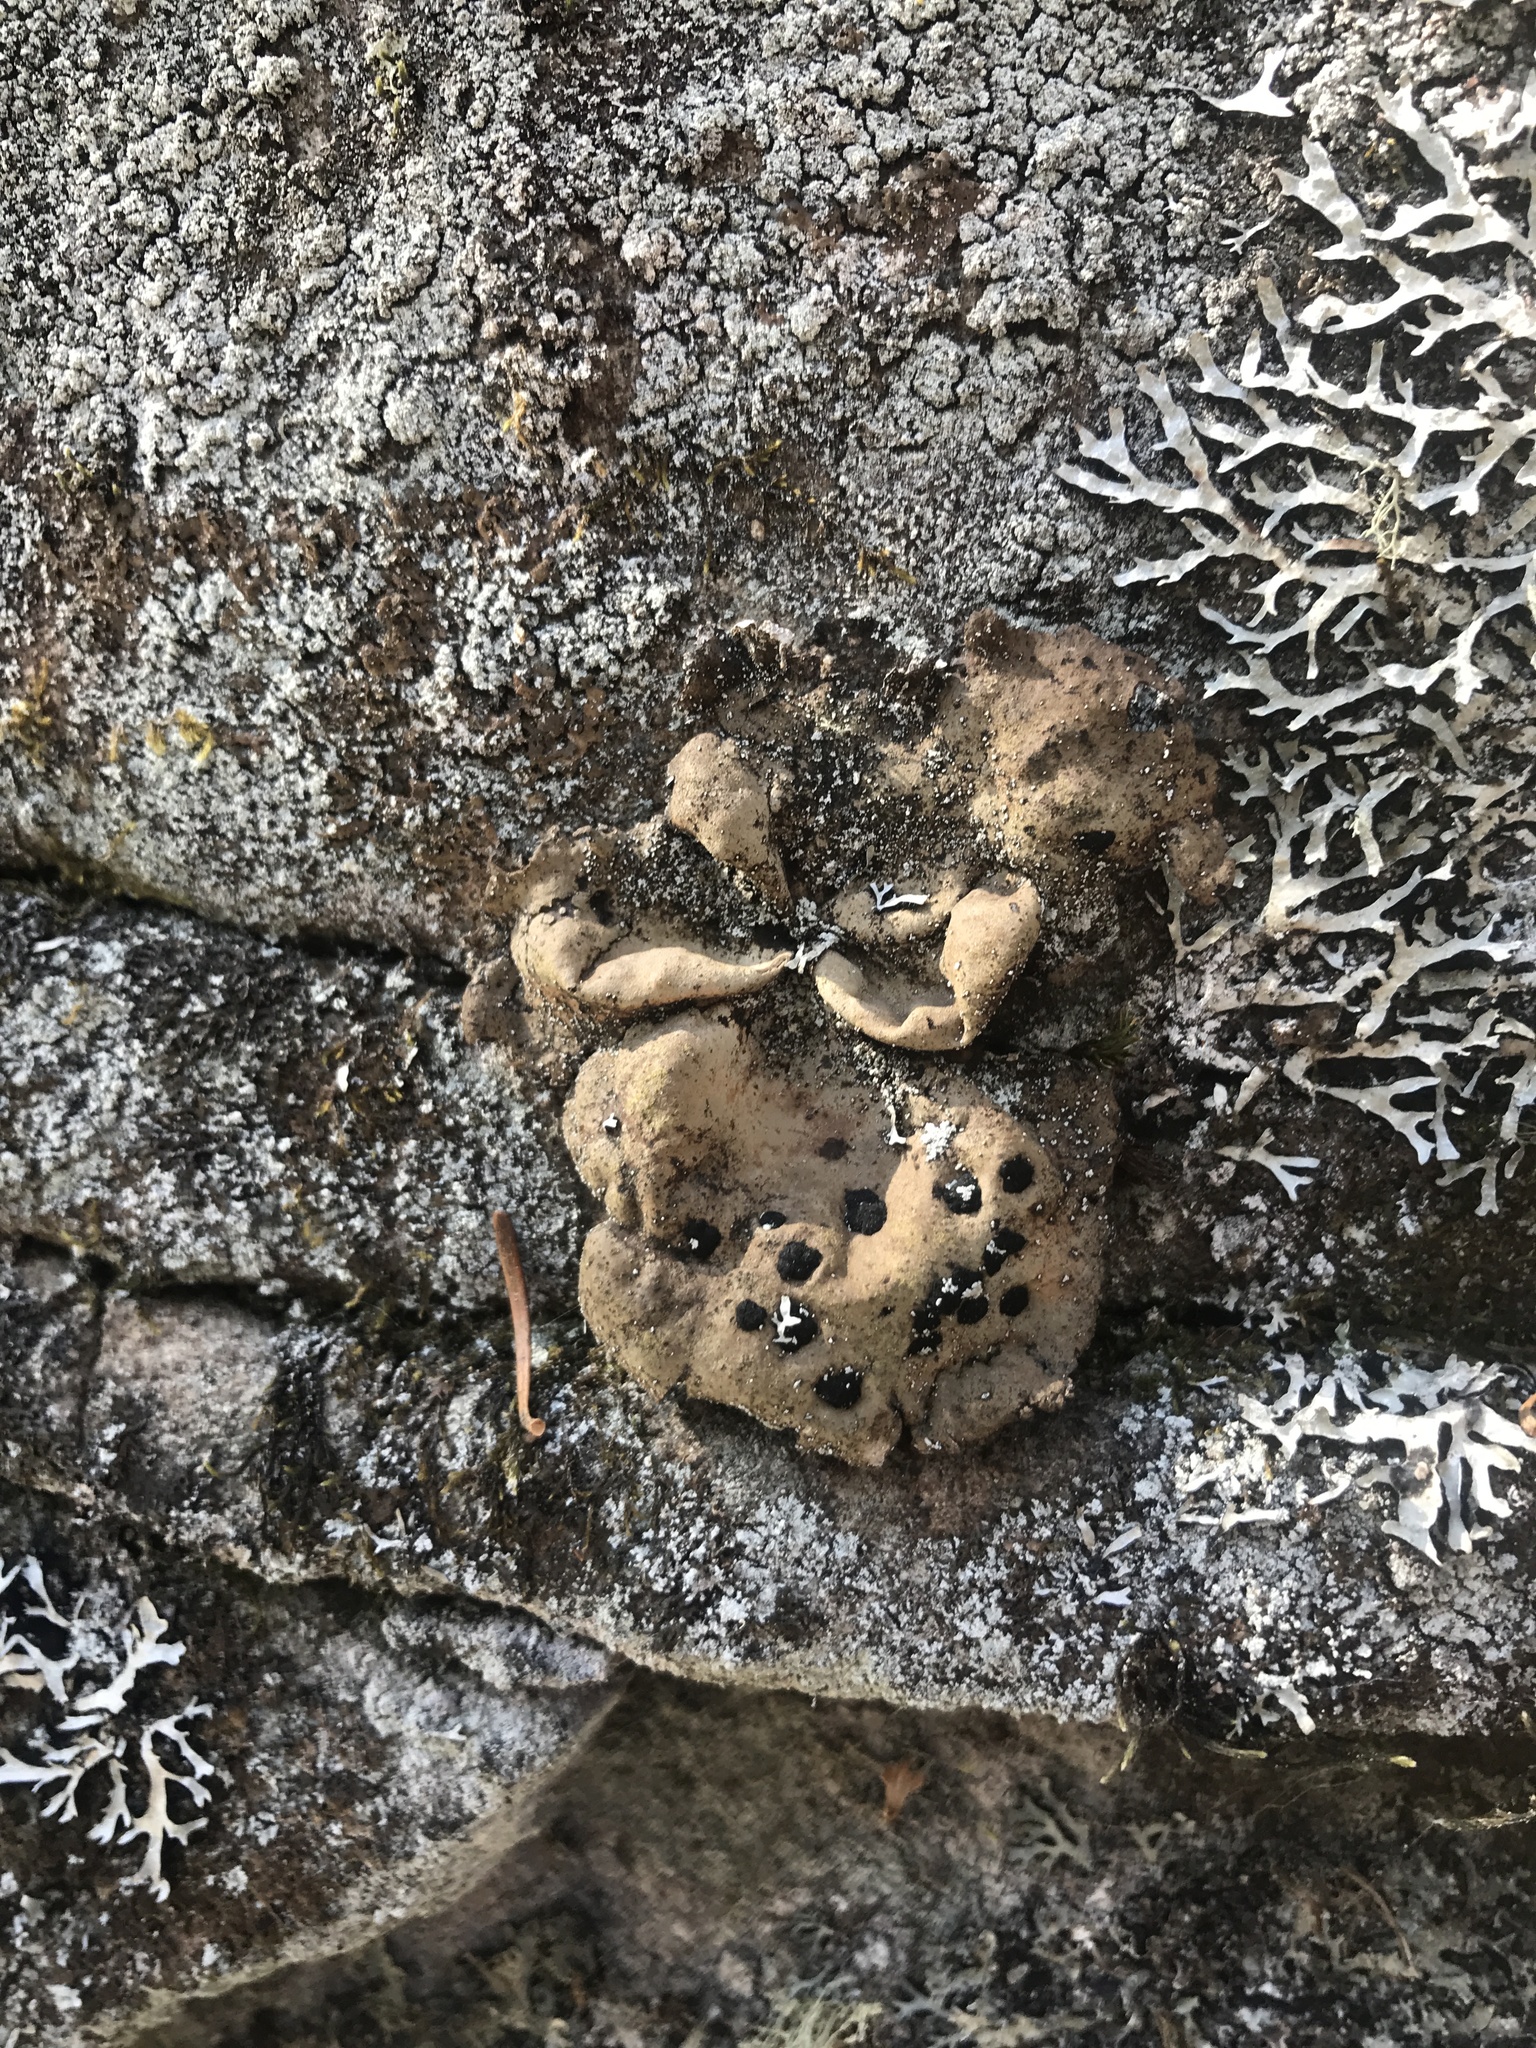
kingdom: Fungi
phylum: Ascomycota
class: Lecanoromycetes
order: Umbilicariales
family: Umbilicariaceae
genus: Umbilicaria
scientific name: Umbilicaria muhlenbergii
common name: Lesser rocktripe
